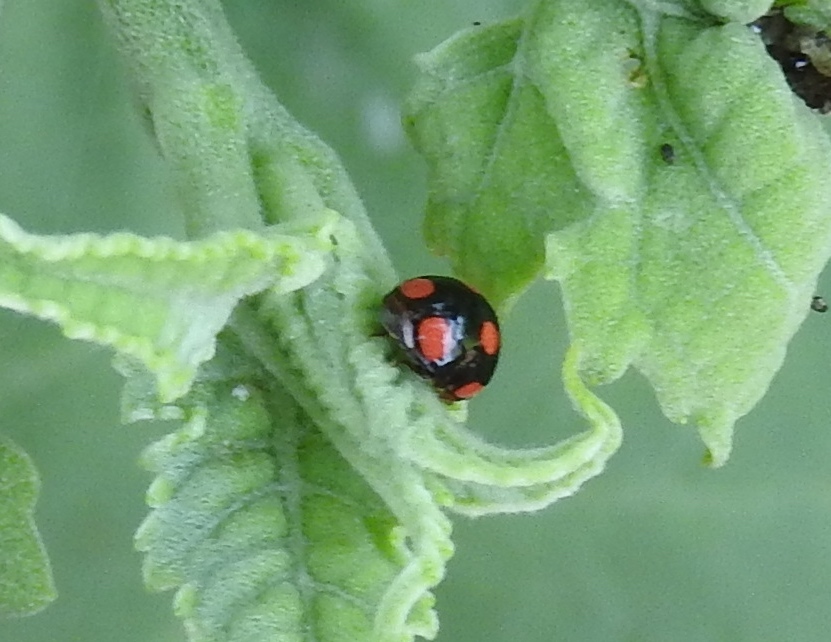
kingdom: Animalia
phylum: Arthropoda
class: Insecta
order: Coleoptera
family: Coccinellidae
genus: Brachiacantha
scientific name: Brachiacantha
